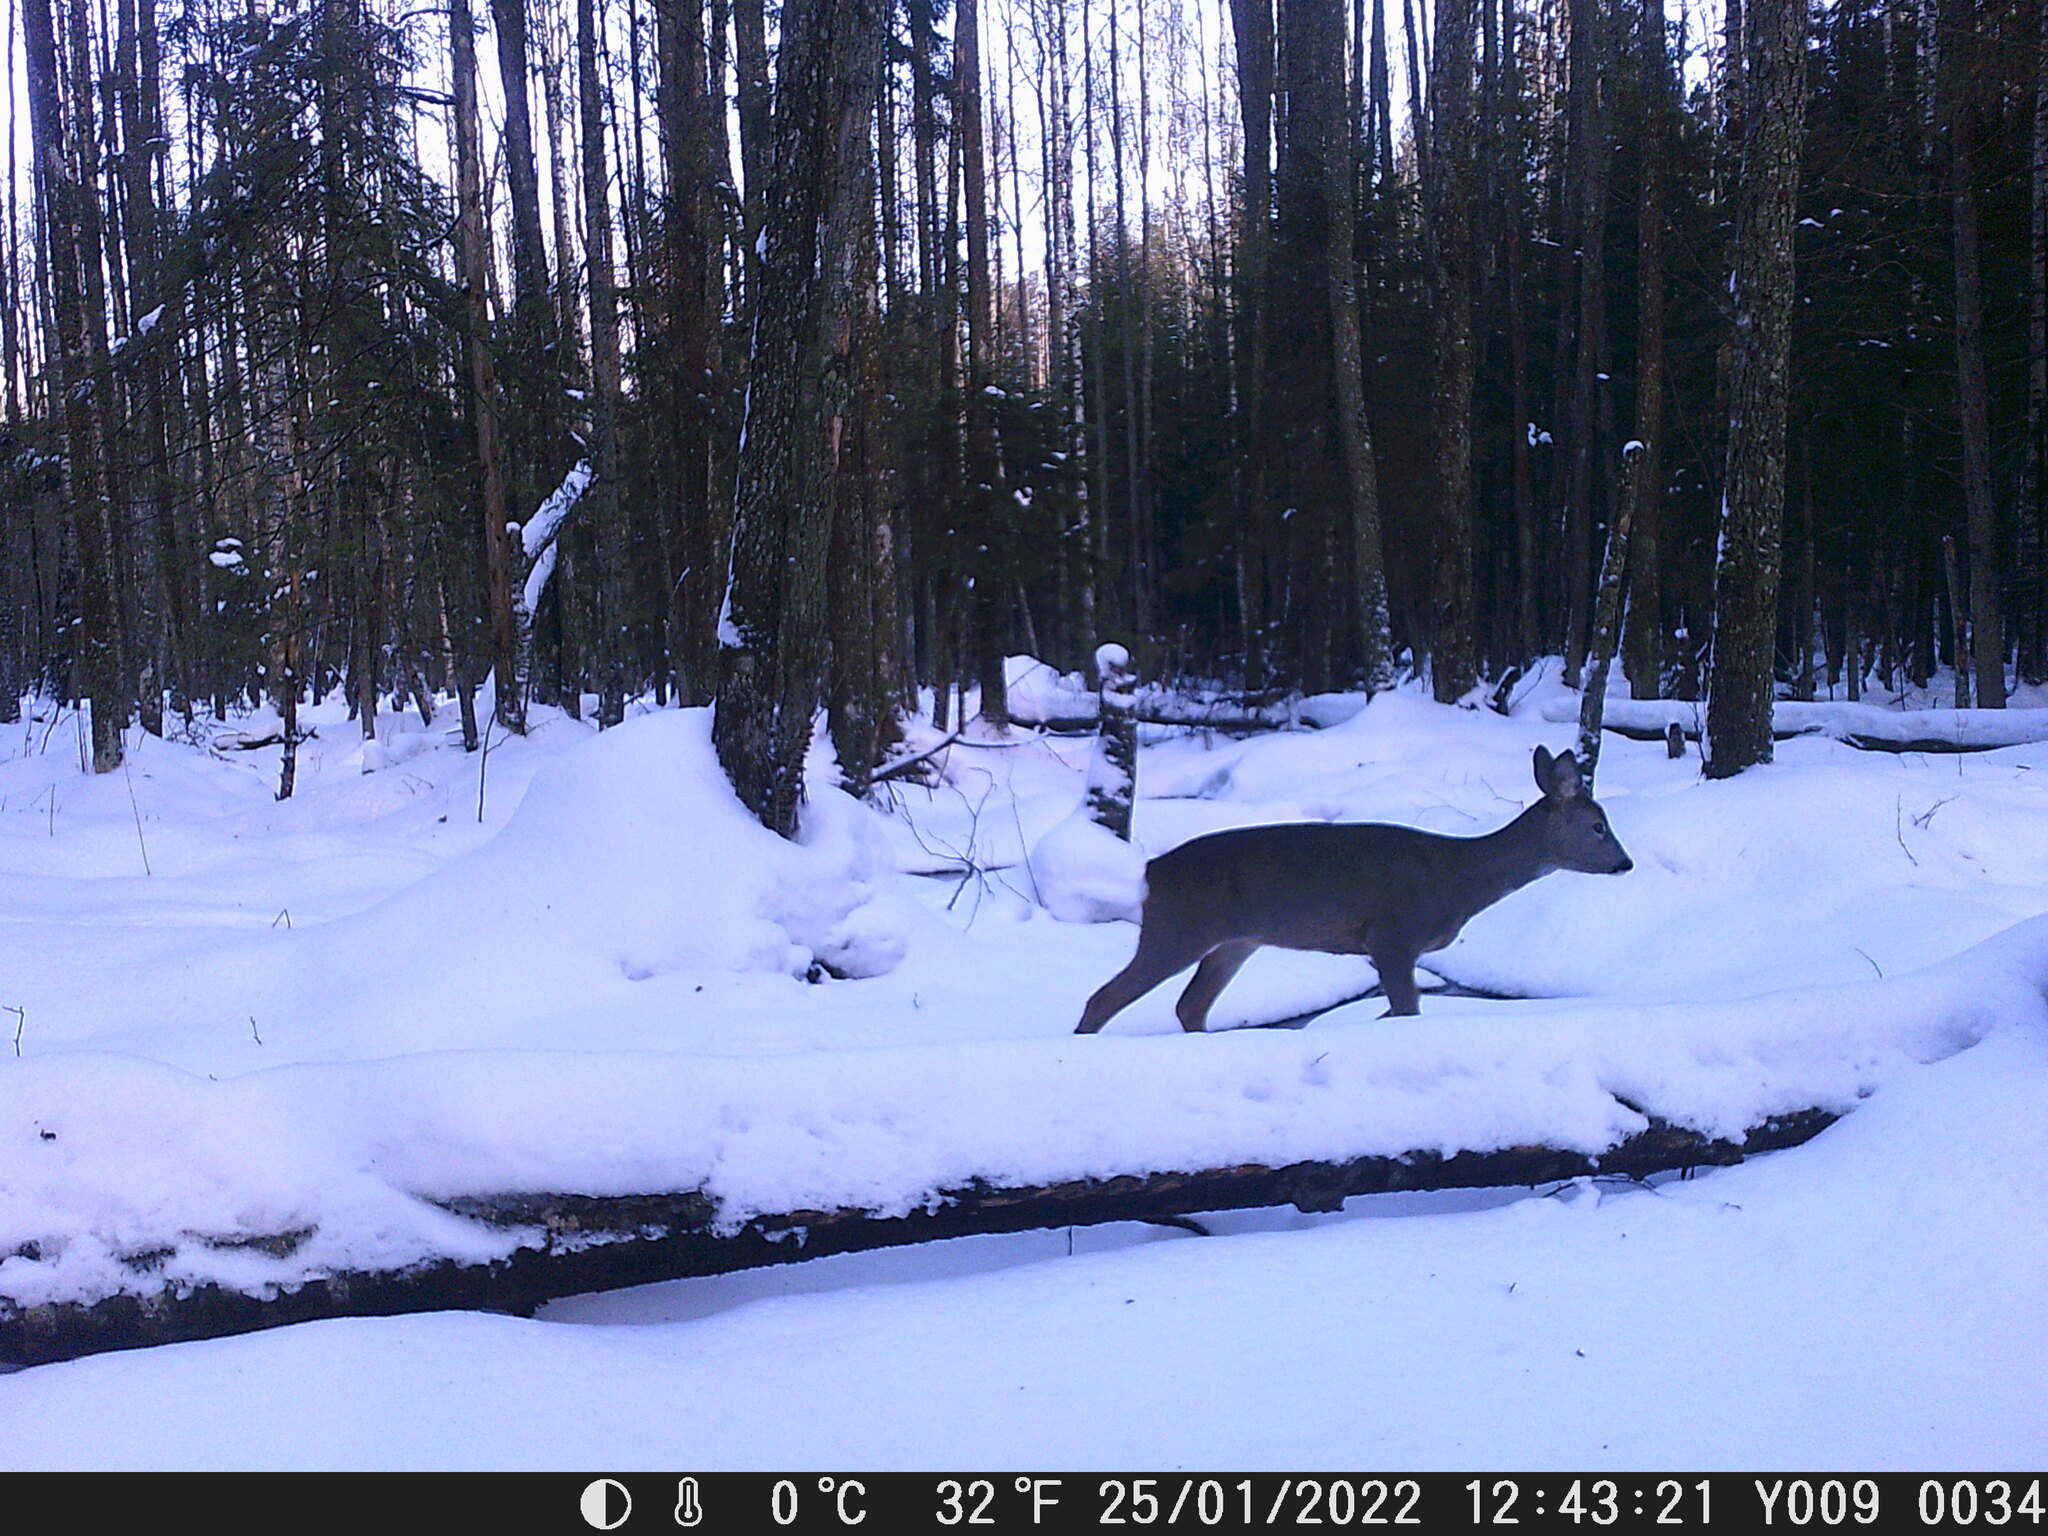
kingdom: Animalia
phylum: Chordata
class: Mammalia
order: Artiodactyla
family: Cervidae
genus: Capreolus
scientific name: Capreolus capreolus
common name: Western roe deer
